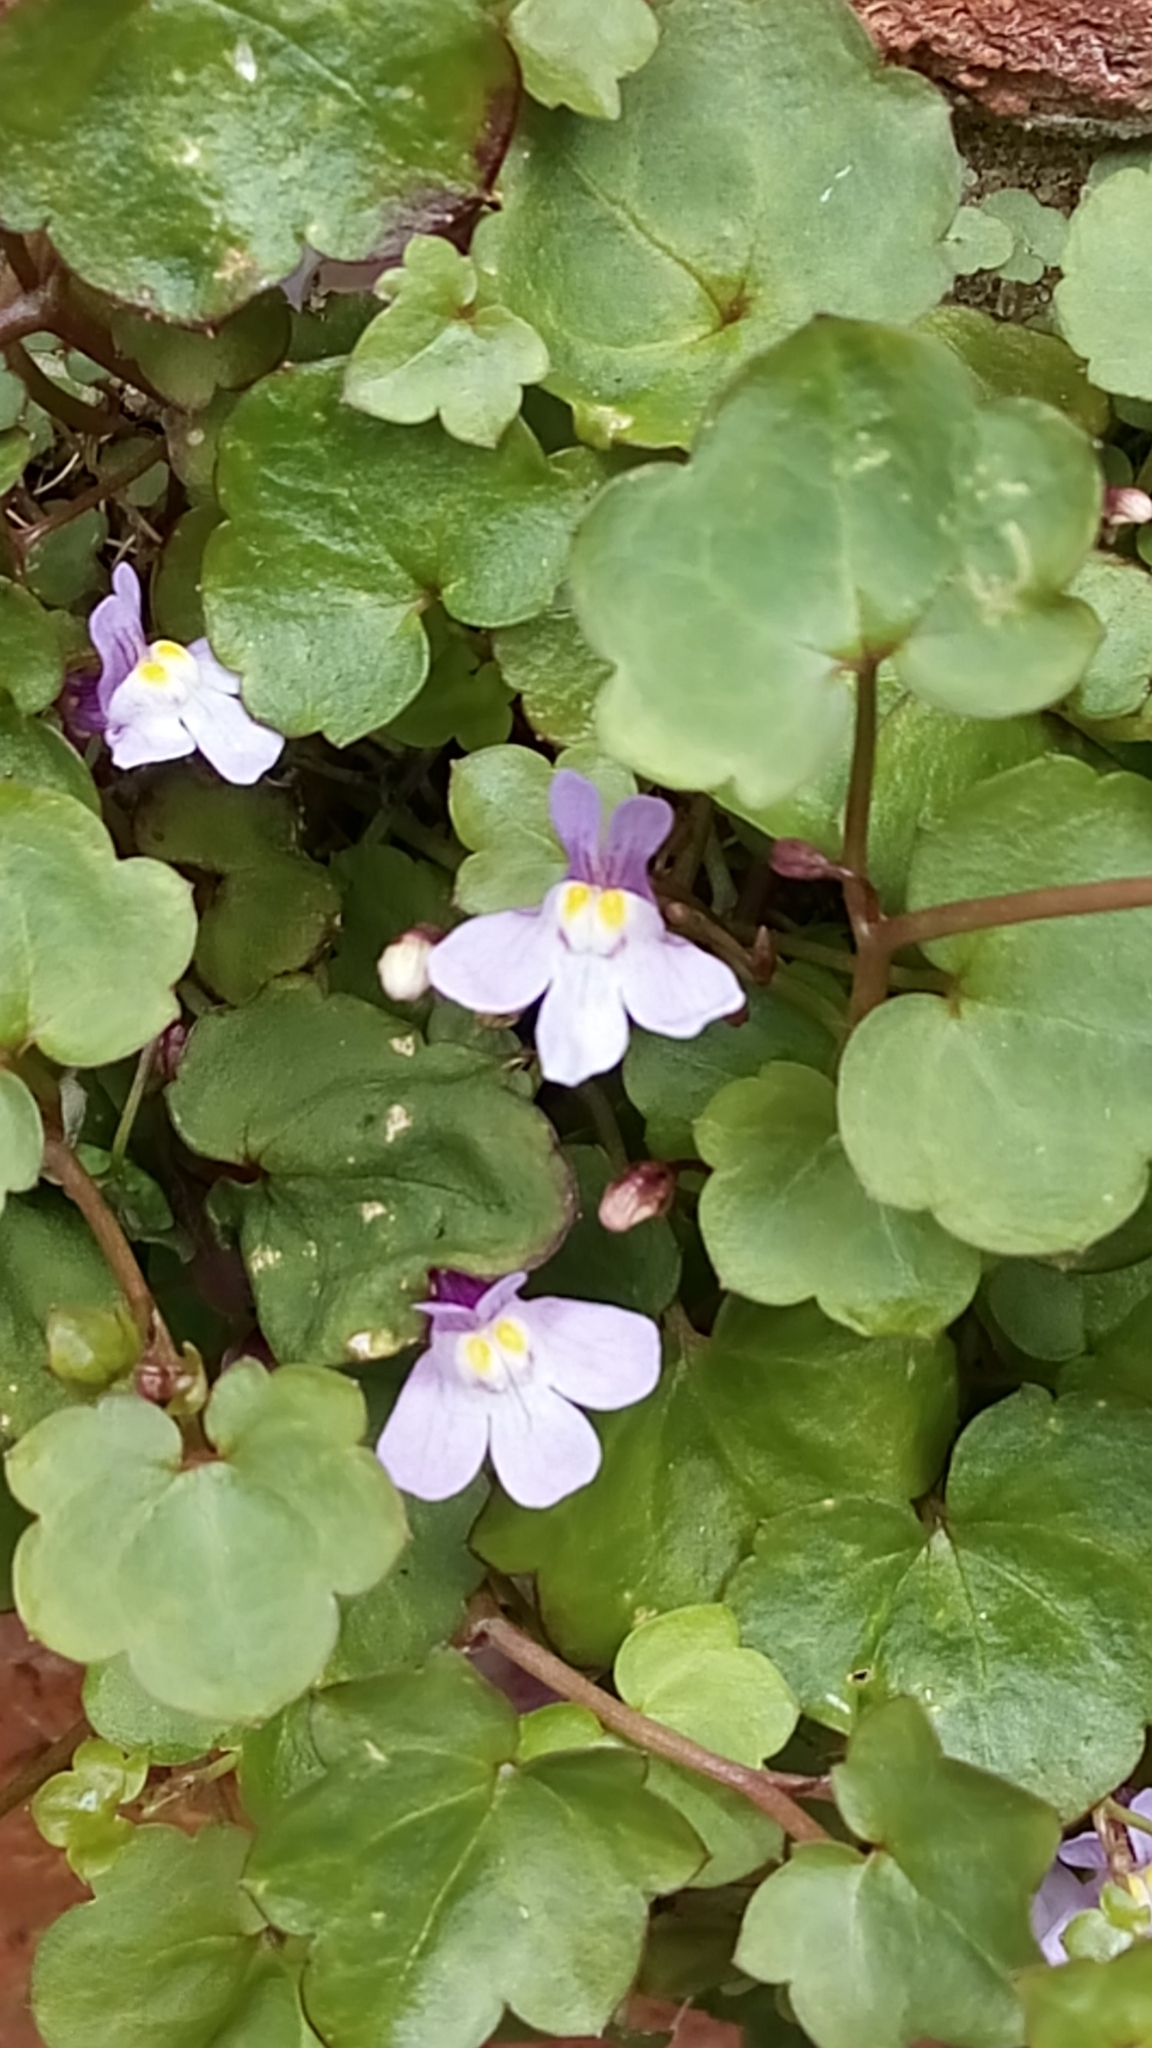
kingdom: Plantae
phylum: Tracheophyta
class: Magnoliopsida
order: Lamiales
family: Plantaginaceae
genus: Cymbalaria
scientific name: Cymbalaria muralis
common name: Ivy-leaved toadflax
